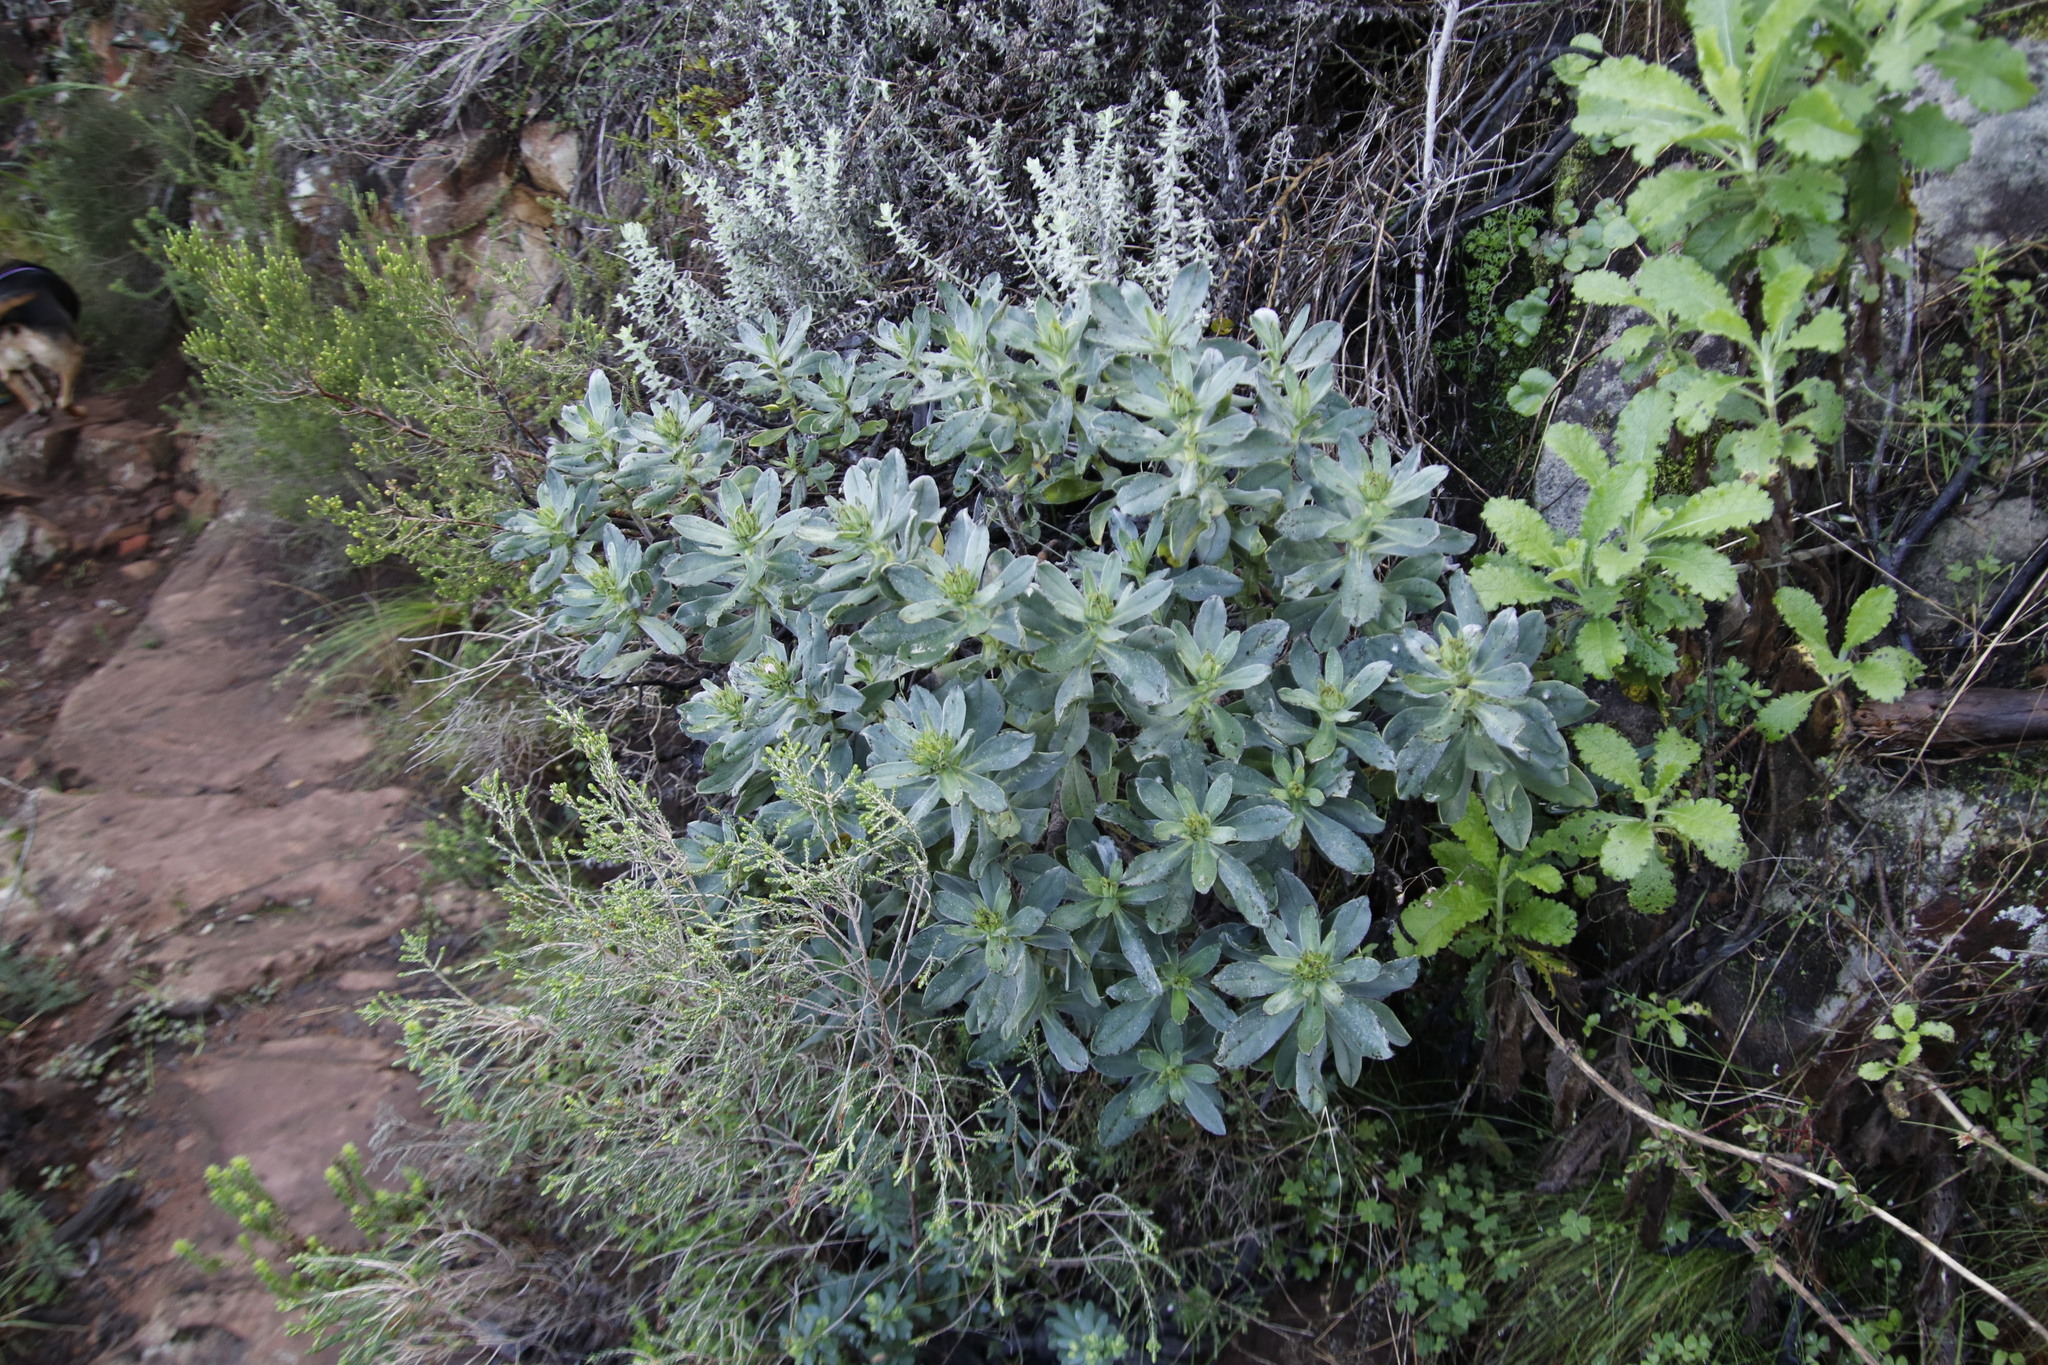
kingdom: Plantae
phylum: Tracheophyta
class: Magnoliopsida
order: Boraginales
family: Boraginaceae
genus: Lobostemon
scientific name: Lobostemon montanus
